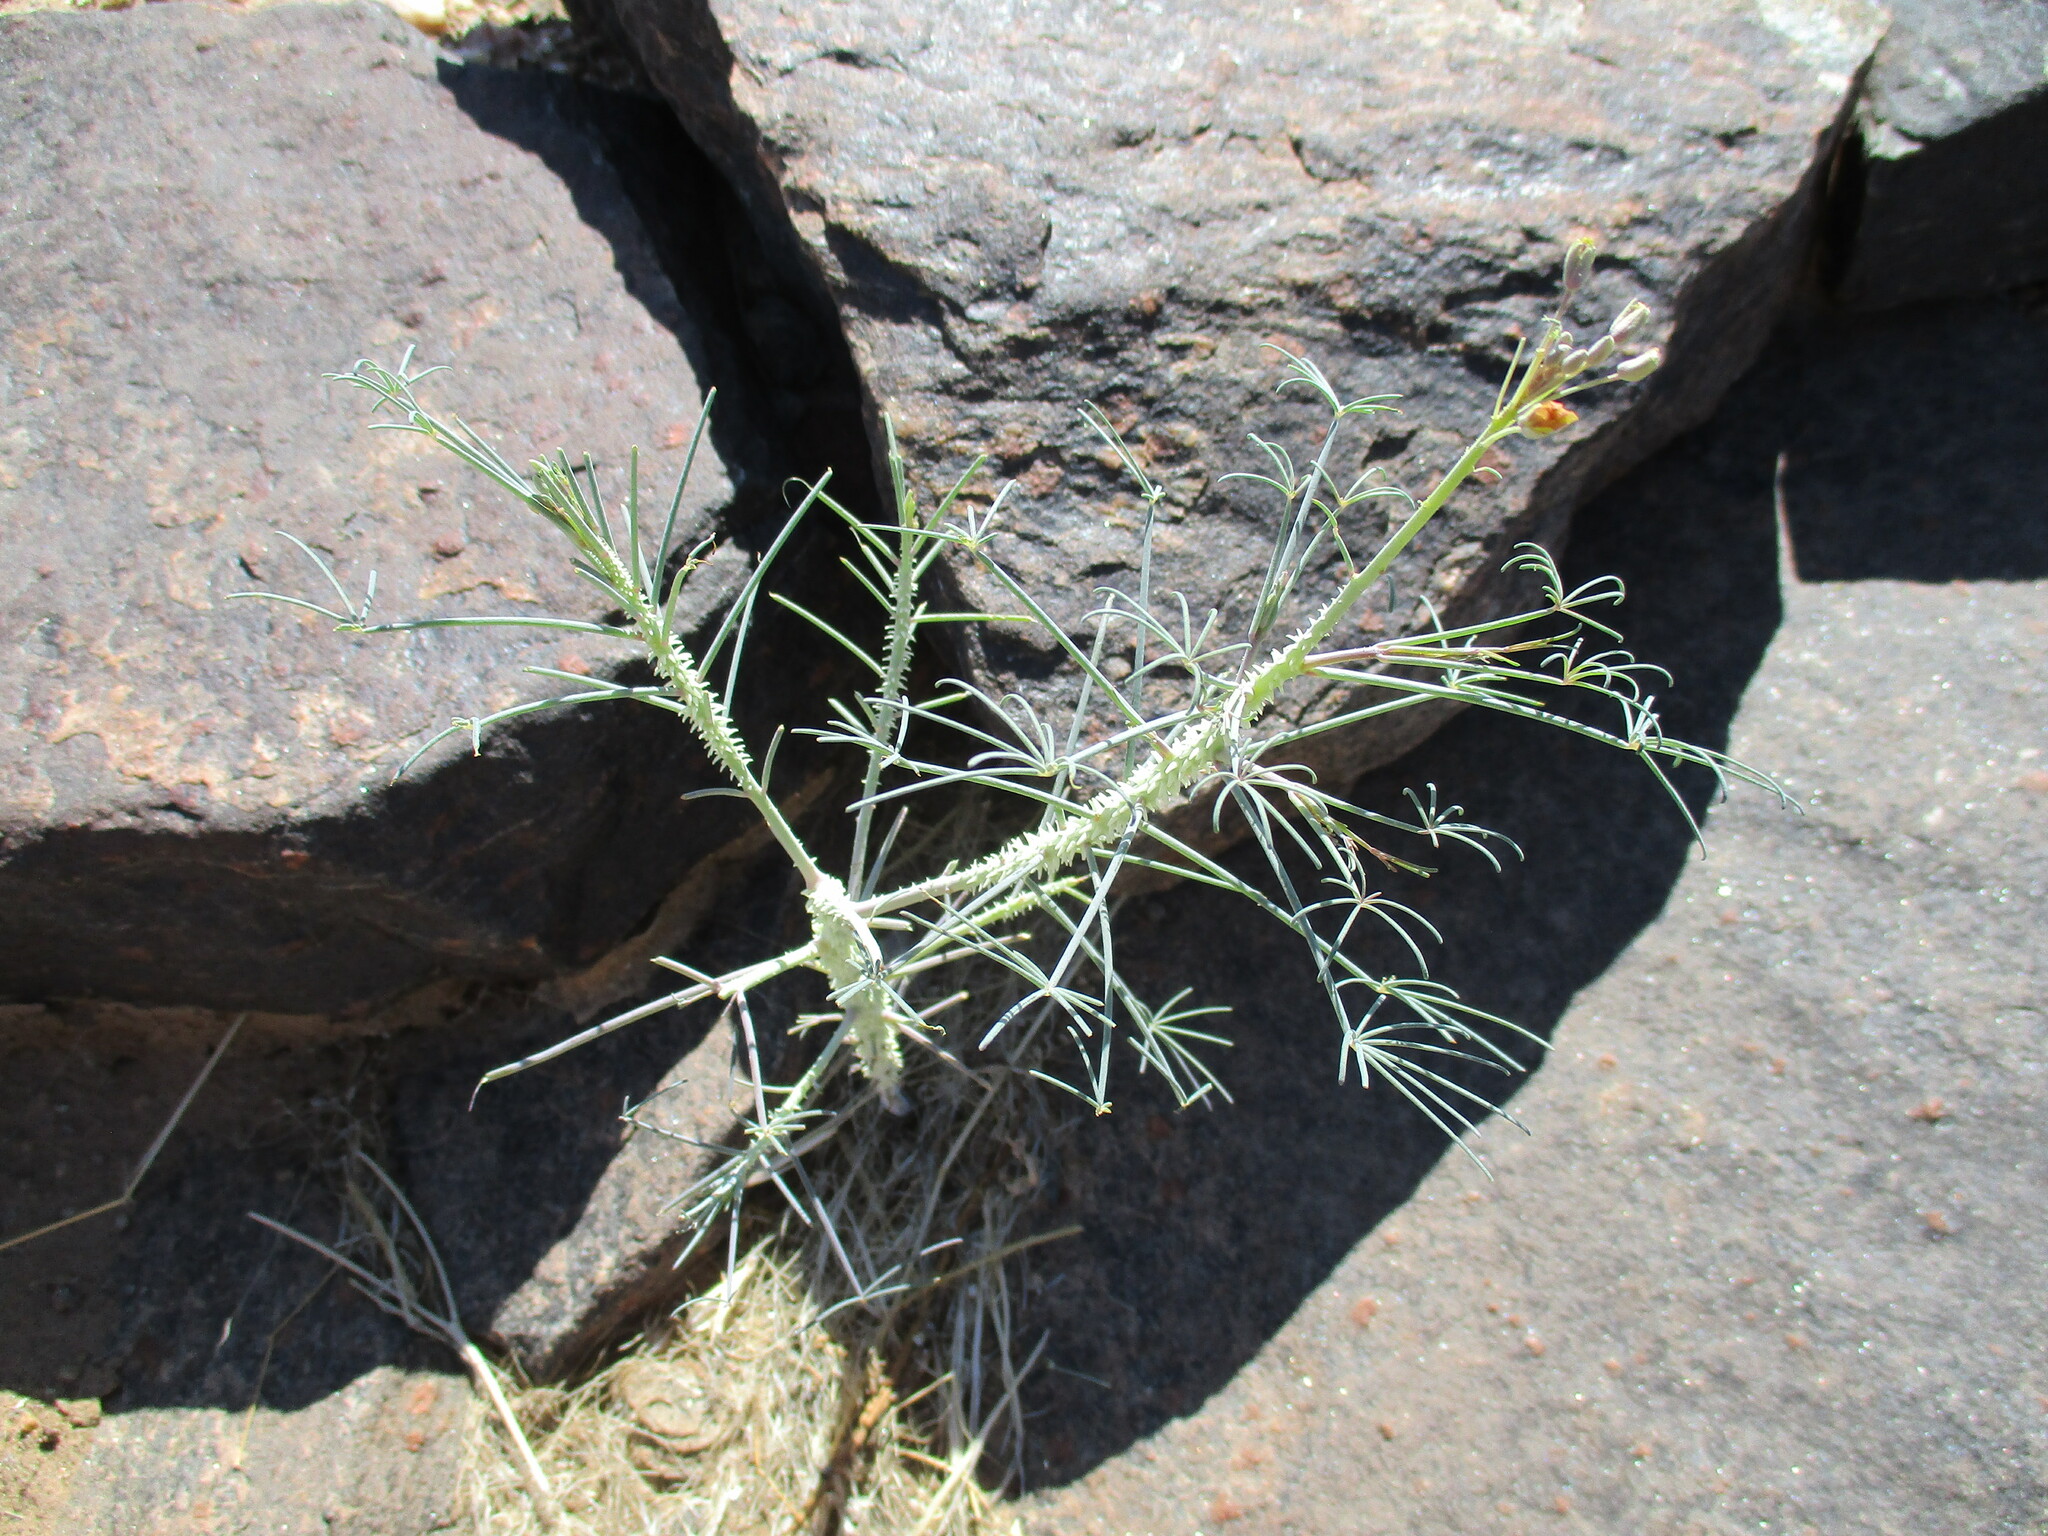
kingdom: Plantae
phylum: Tracheophyta
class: Magnoliopsida
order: Brassicales
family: Cleomaceae
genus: Coalisina
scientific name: Coalisina
